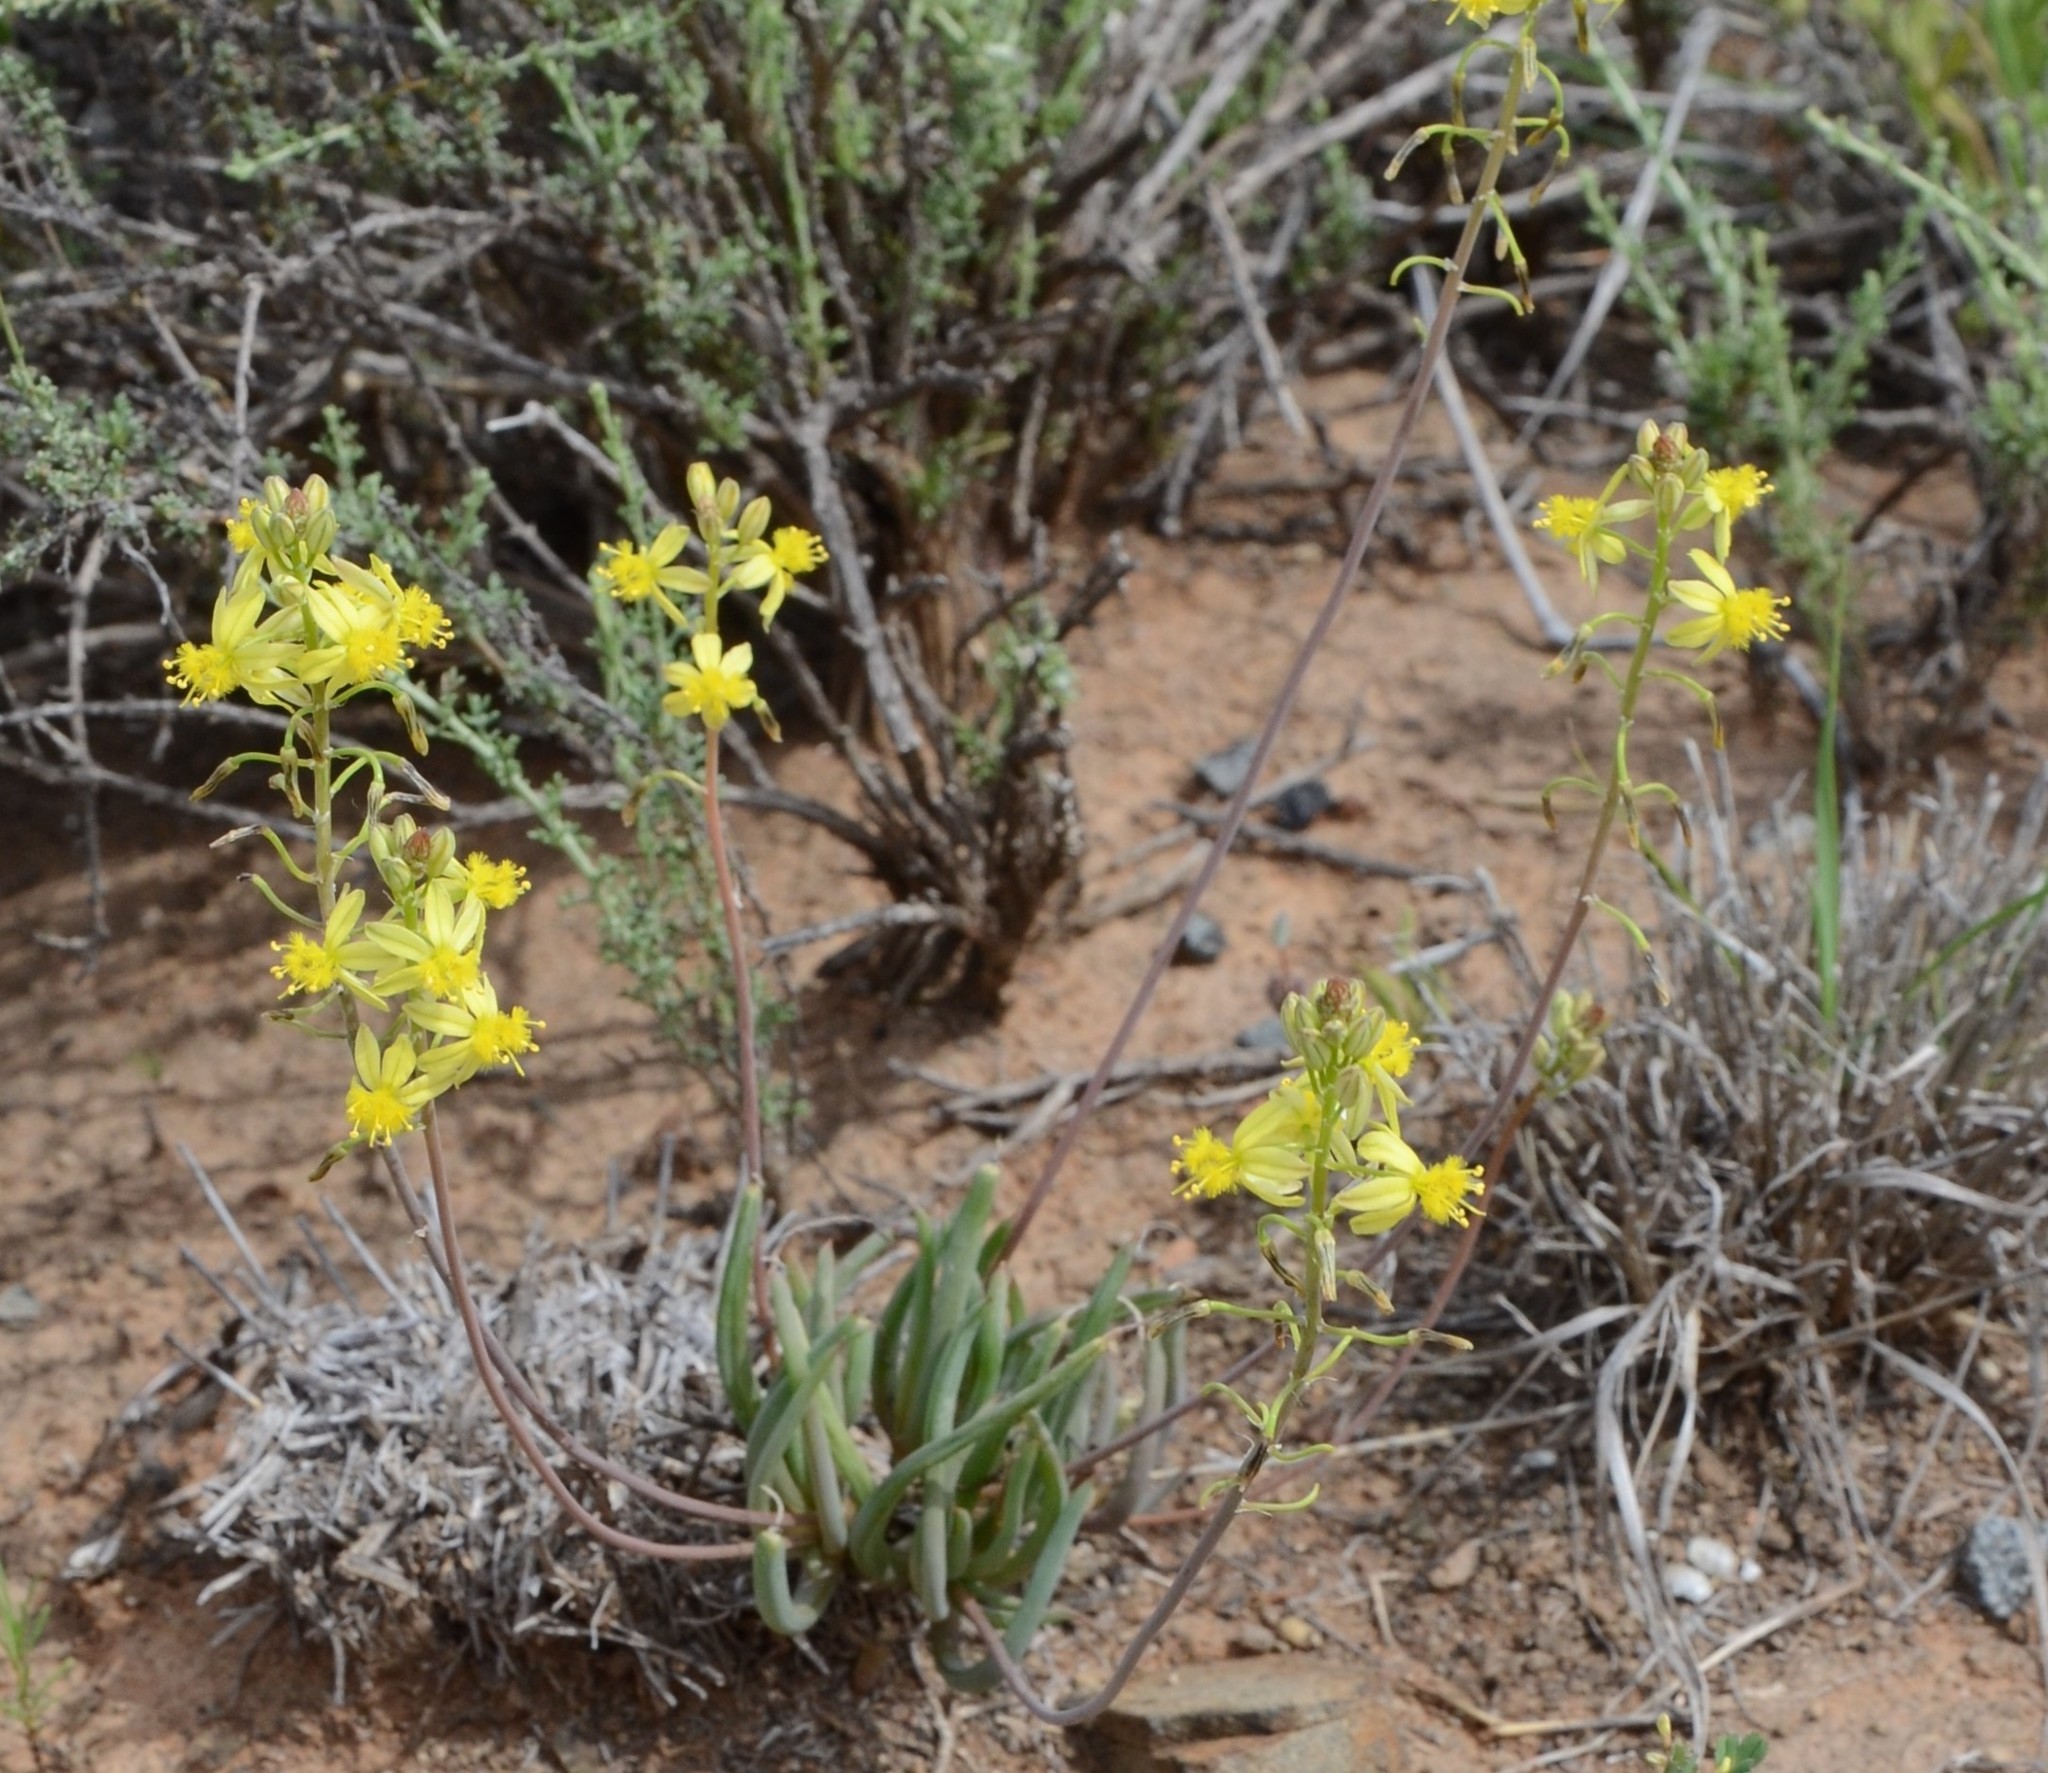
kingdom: Plantae
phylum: Tracheophyta
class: Liliopsida
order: Asparagales
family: Asphodelaceae
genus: Bulbine
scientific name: Bulbine frutescens
